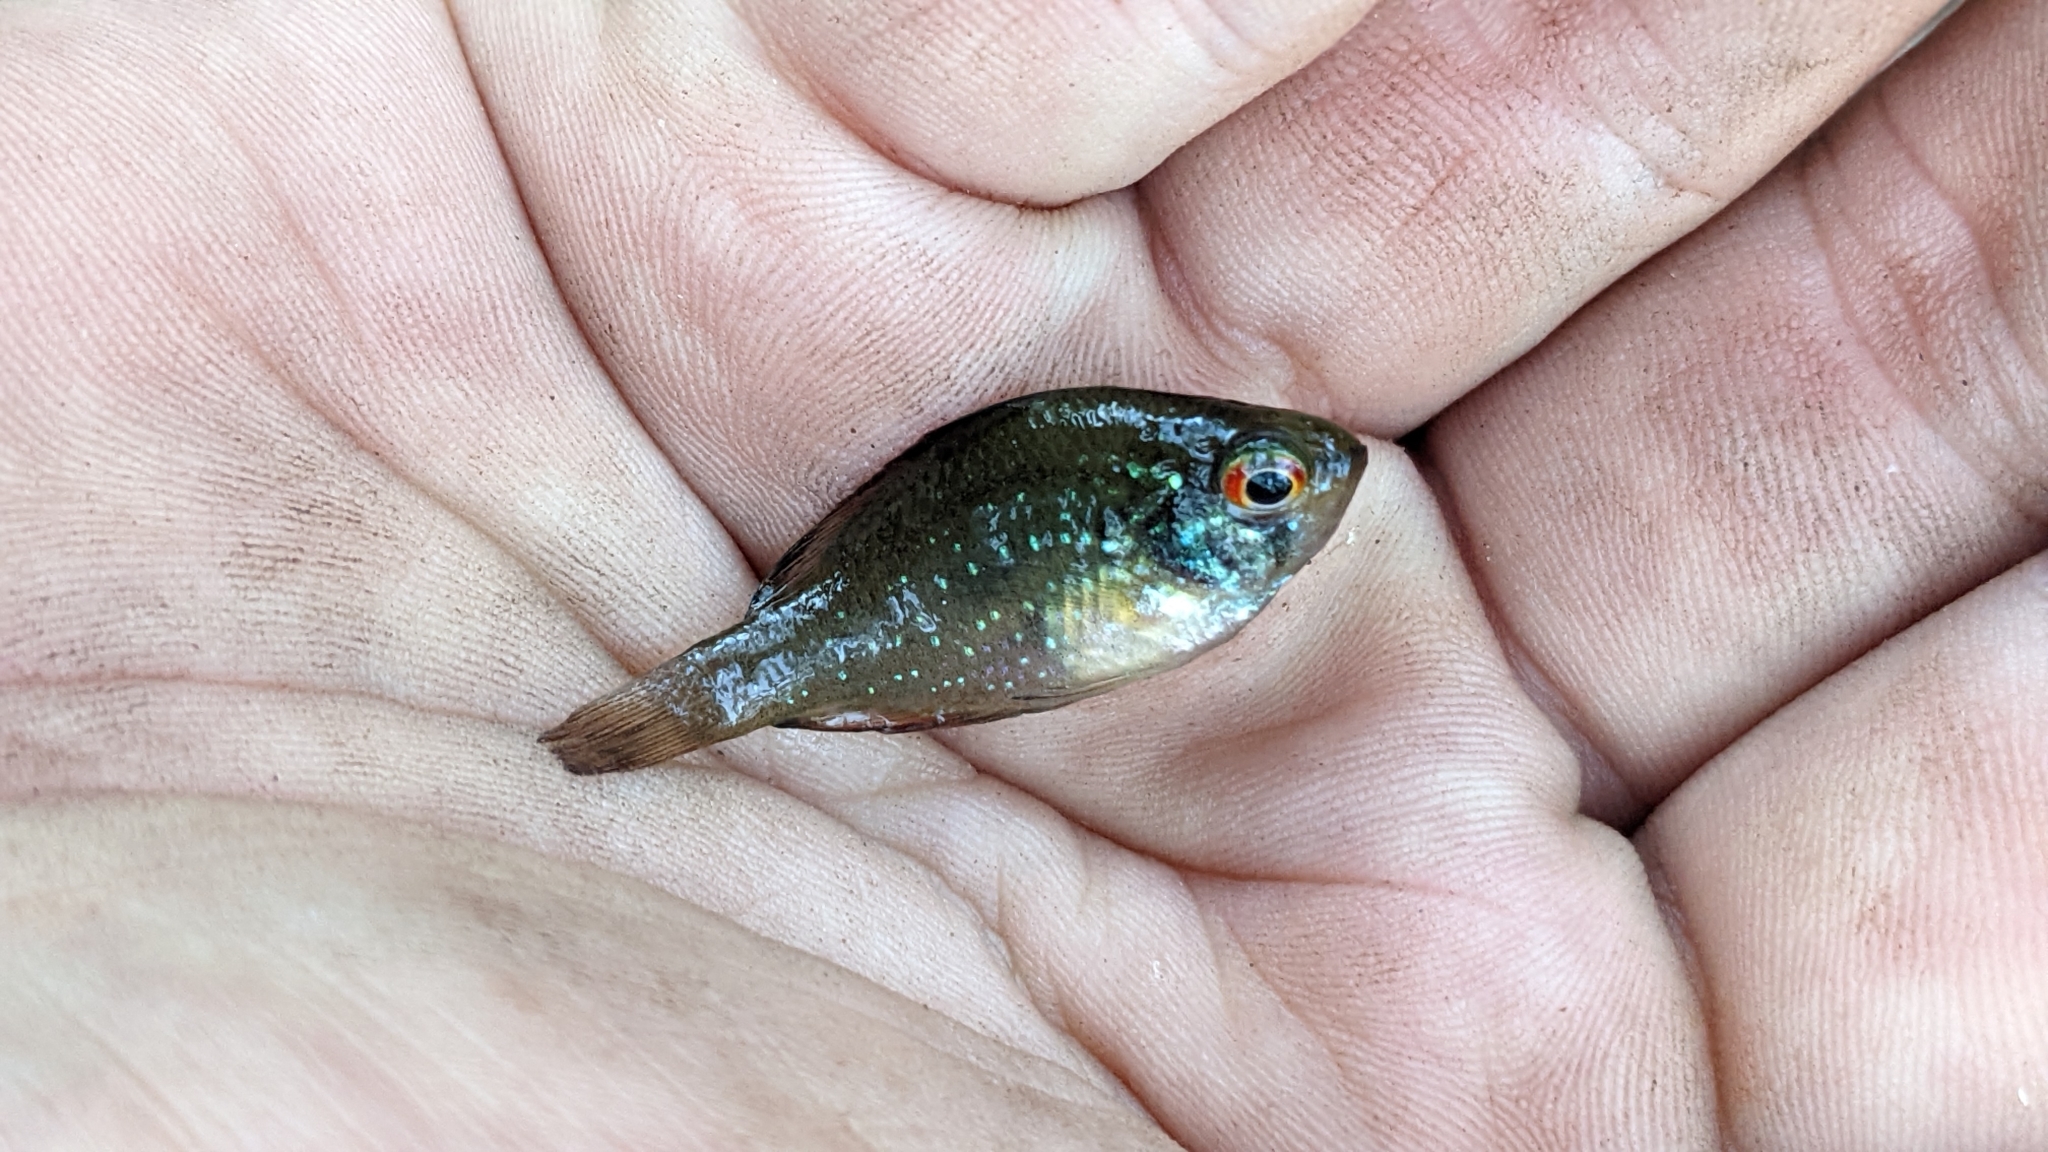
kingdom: Animalia
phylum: Chordata
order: Perciformes
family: Centrarchidae
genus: Enneacanthus
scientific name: Enneacanthus gloriosus
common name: Bluespotted sunfish
